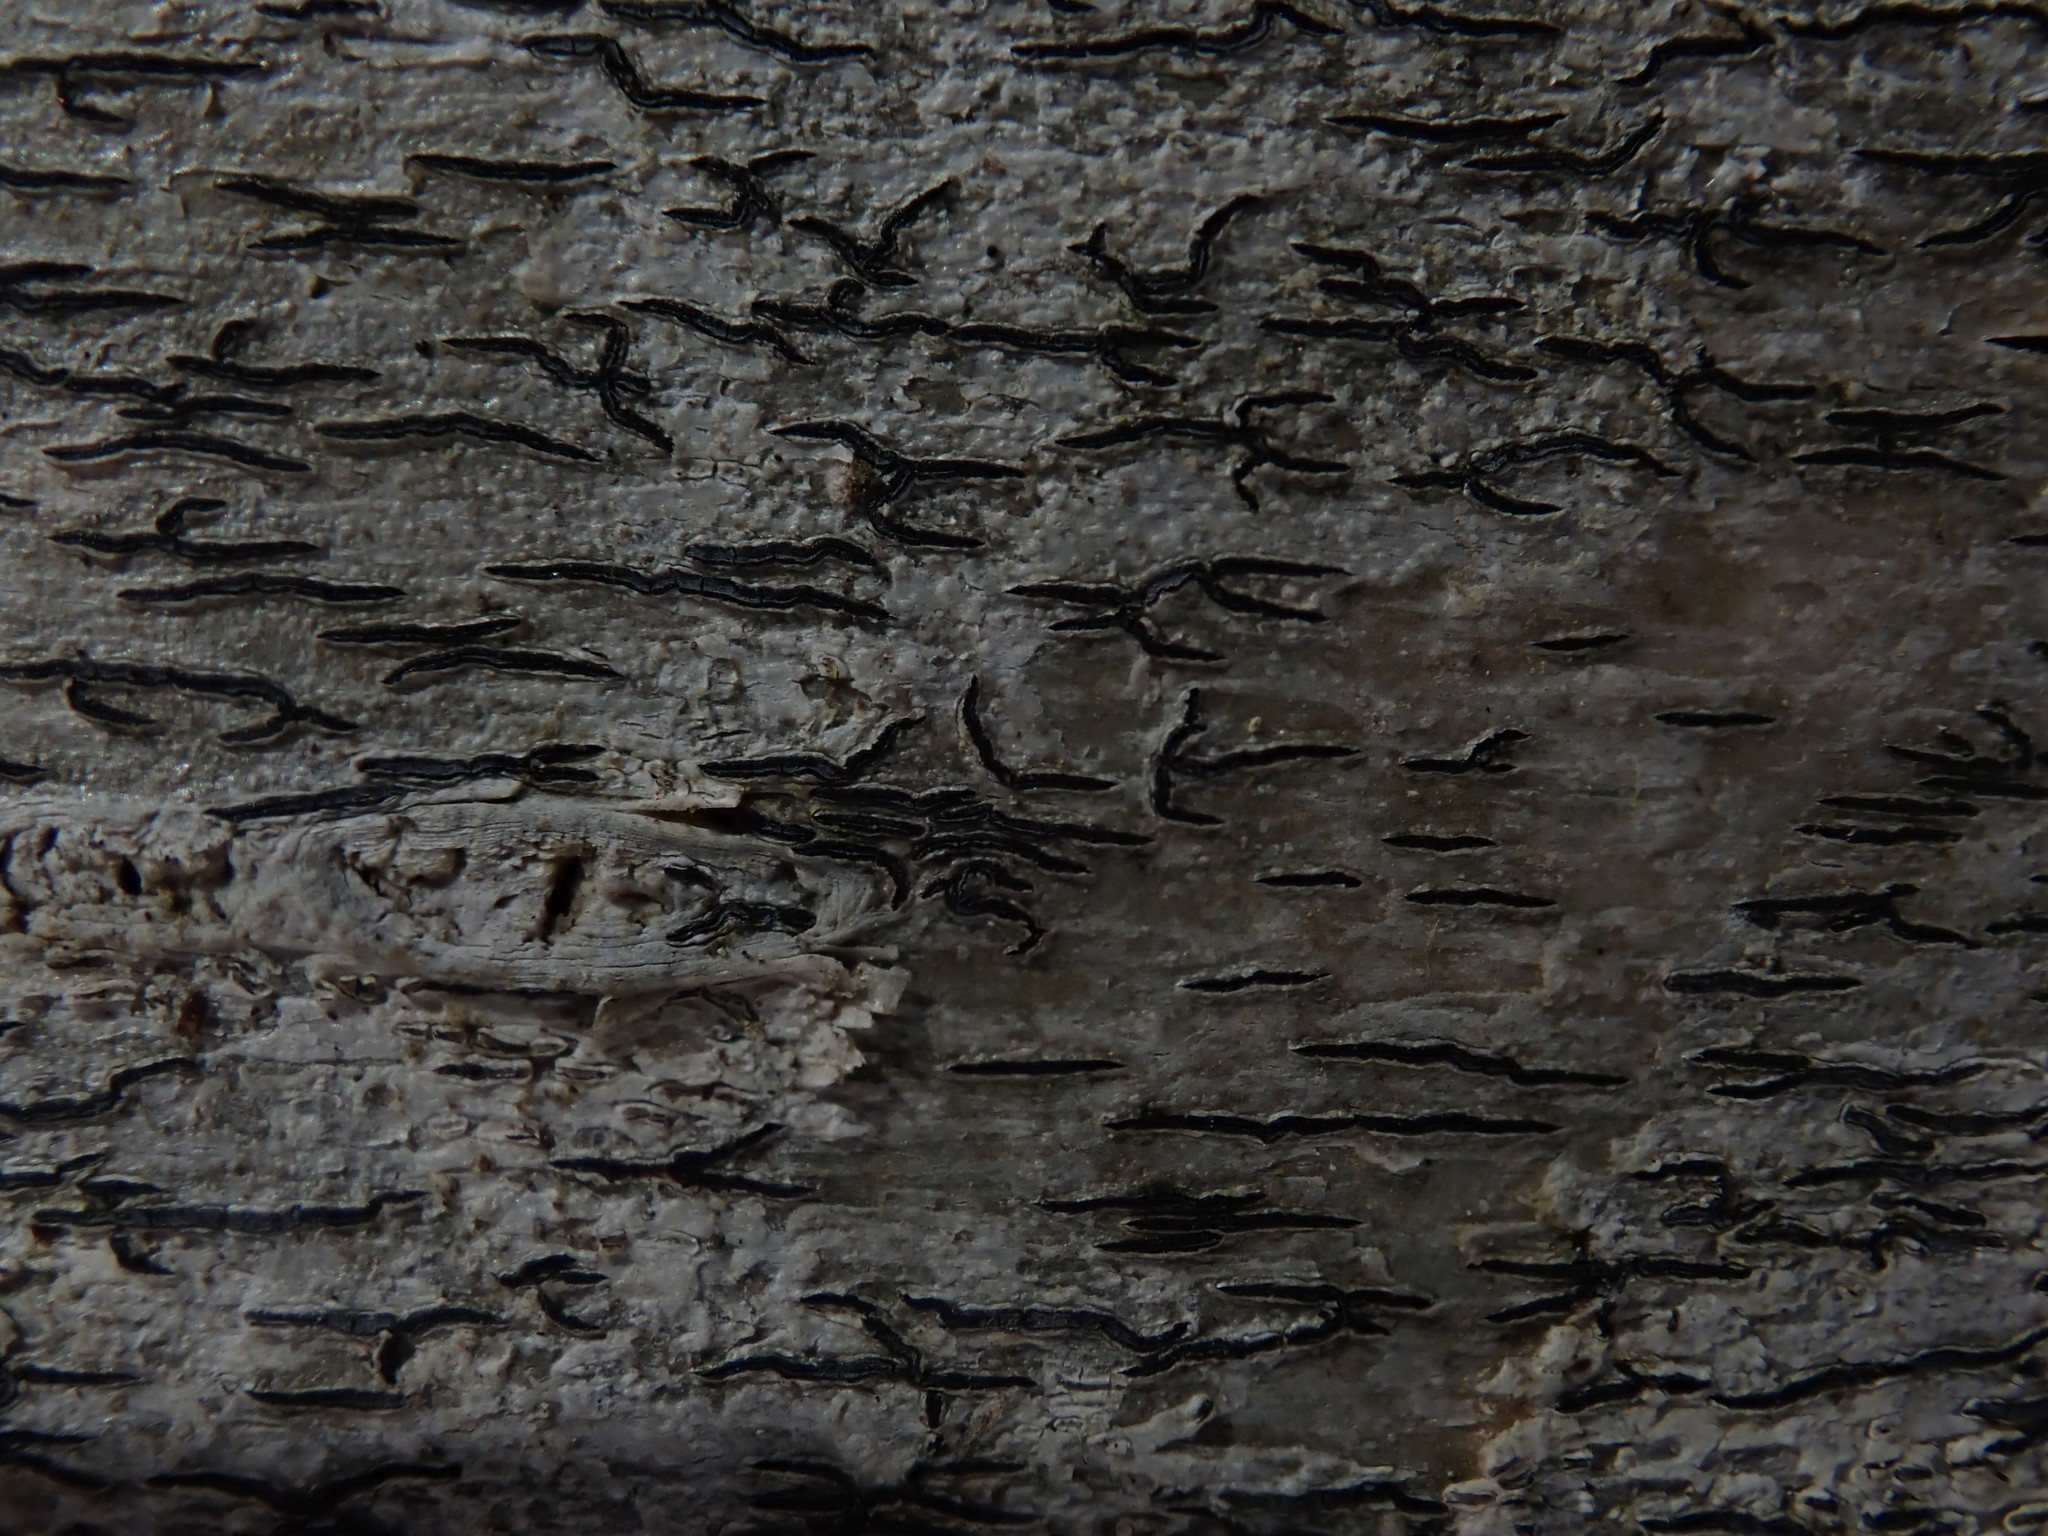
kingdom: Fungi
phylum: Ascomycota
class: Lecanoromycetes
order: Ostropales
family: Graphidaceae
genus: Graphis
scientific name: Graphis scripta
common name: Script lichen
